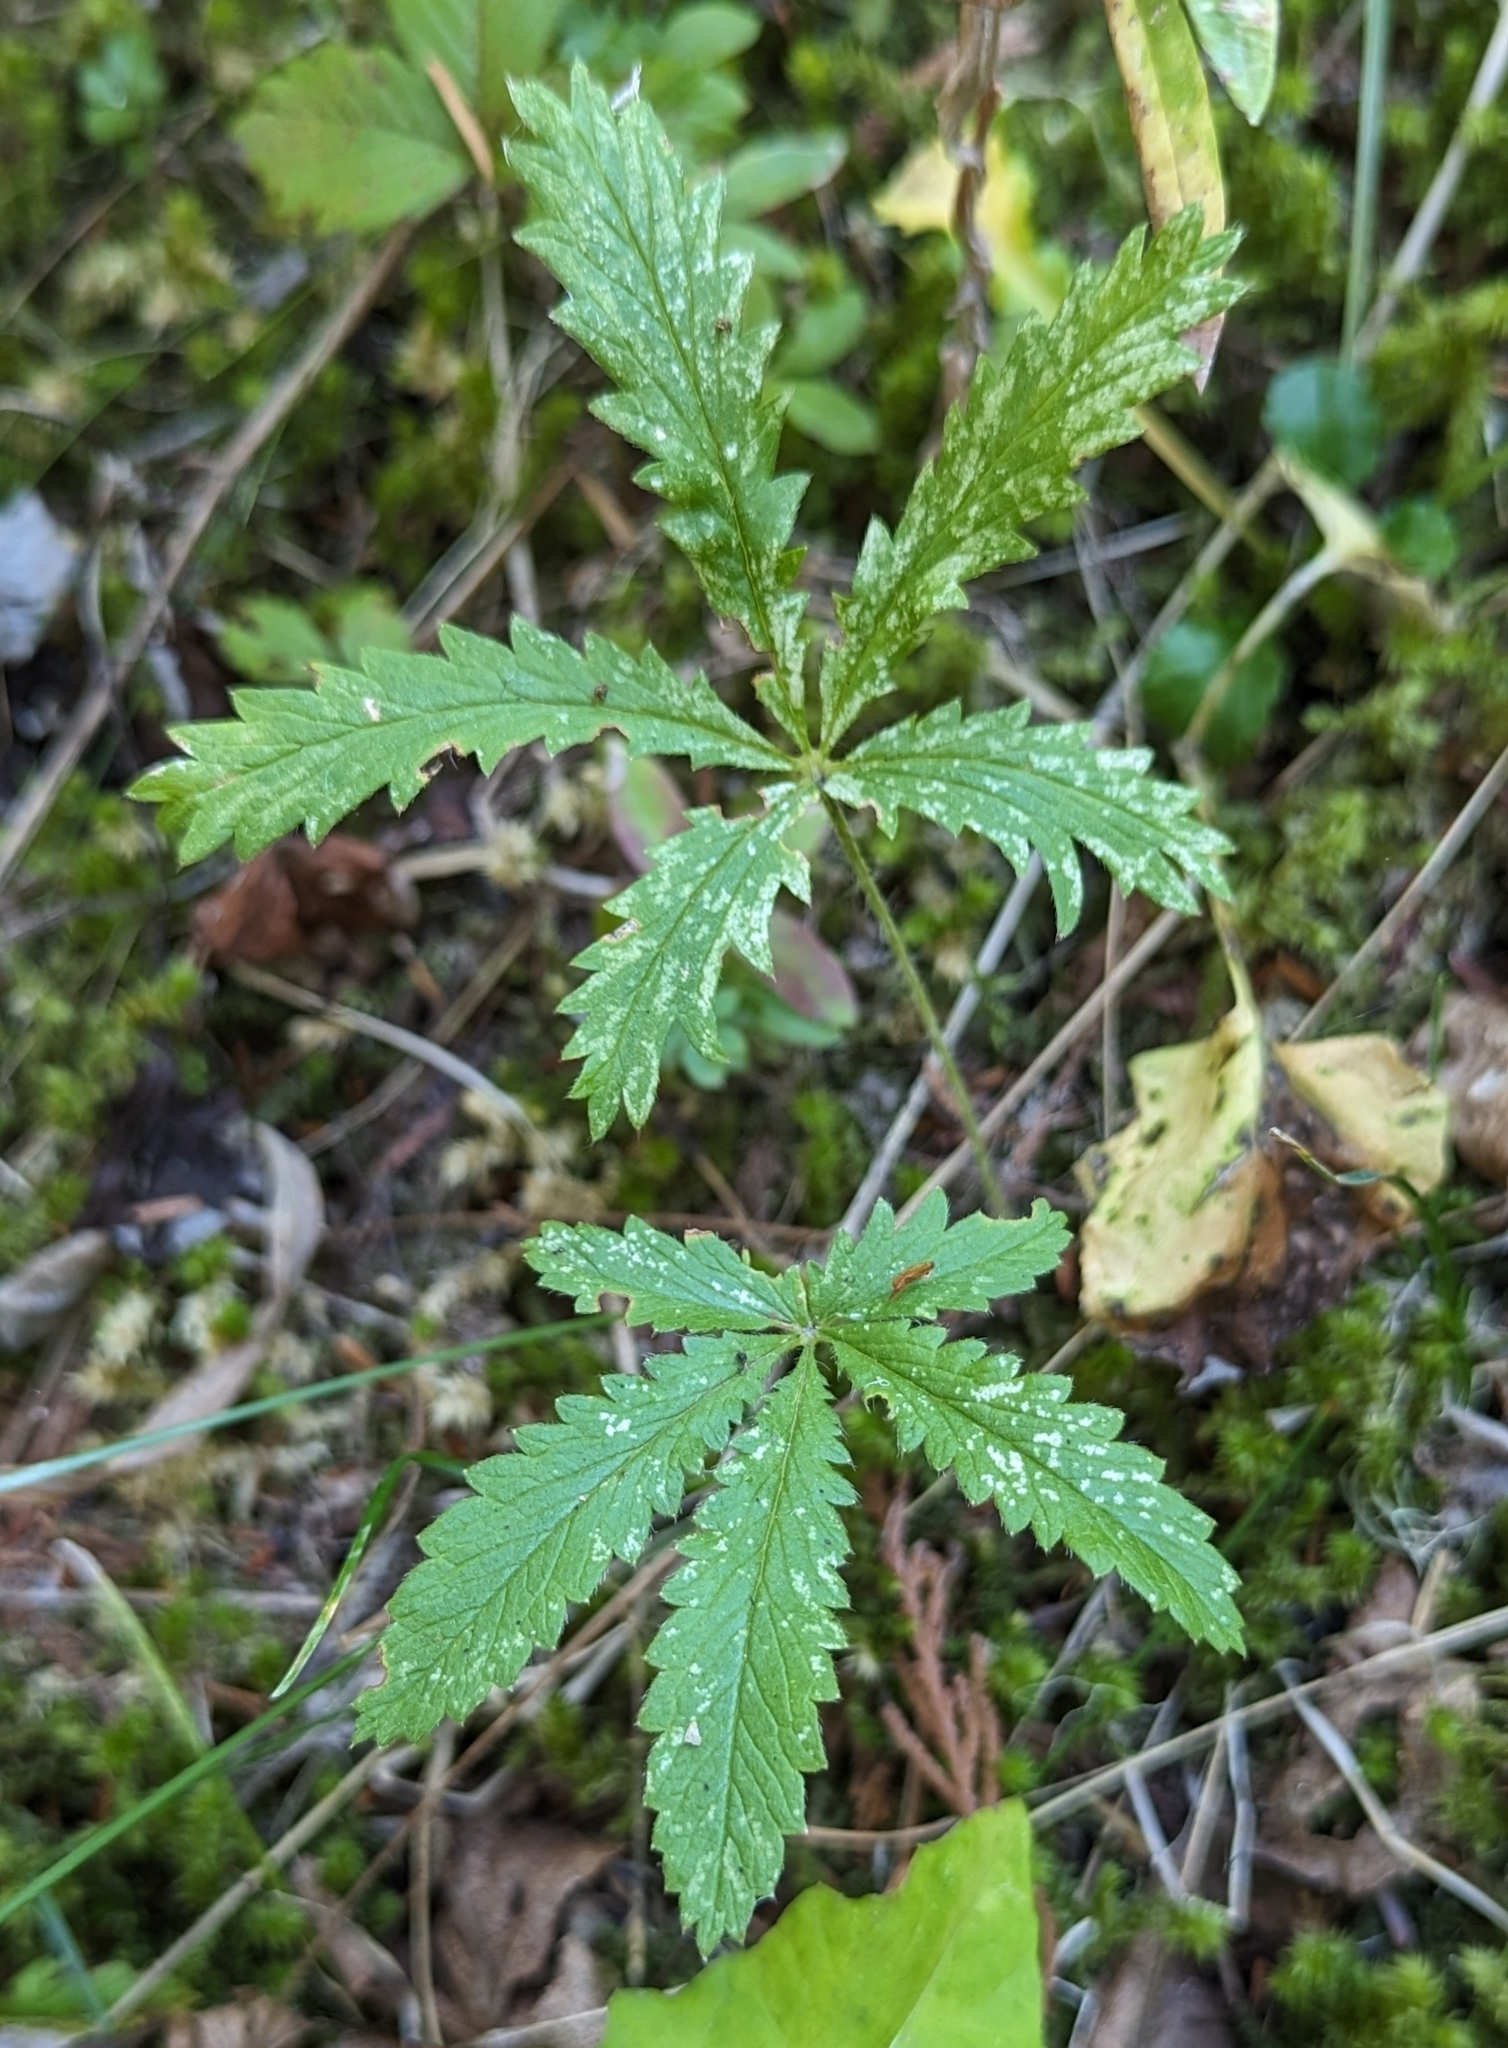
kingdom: Plantae
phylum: Tracheophyta
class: Magnoliopsida
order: Rosales
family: Rosaceae
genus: Potentilla
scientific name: Potentilla recta
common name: Sulphur cinquefoil
